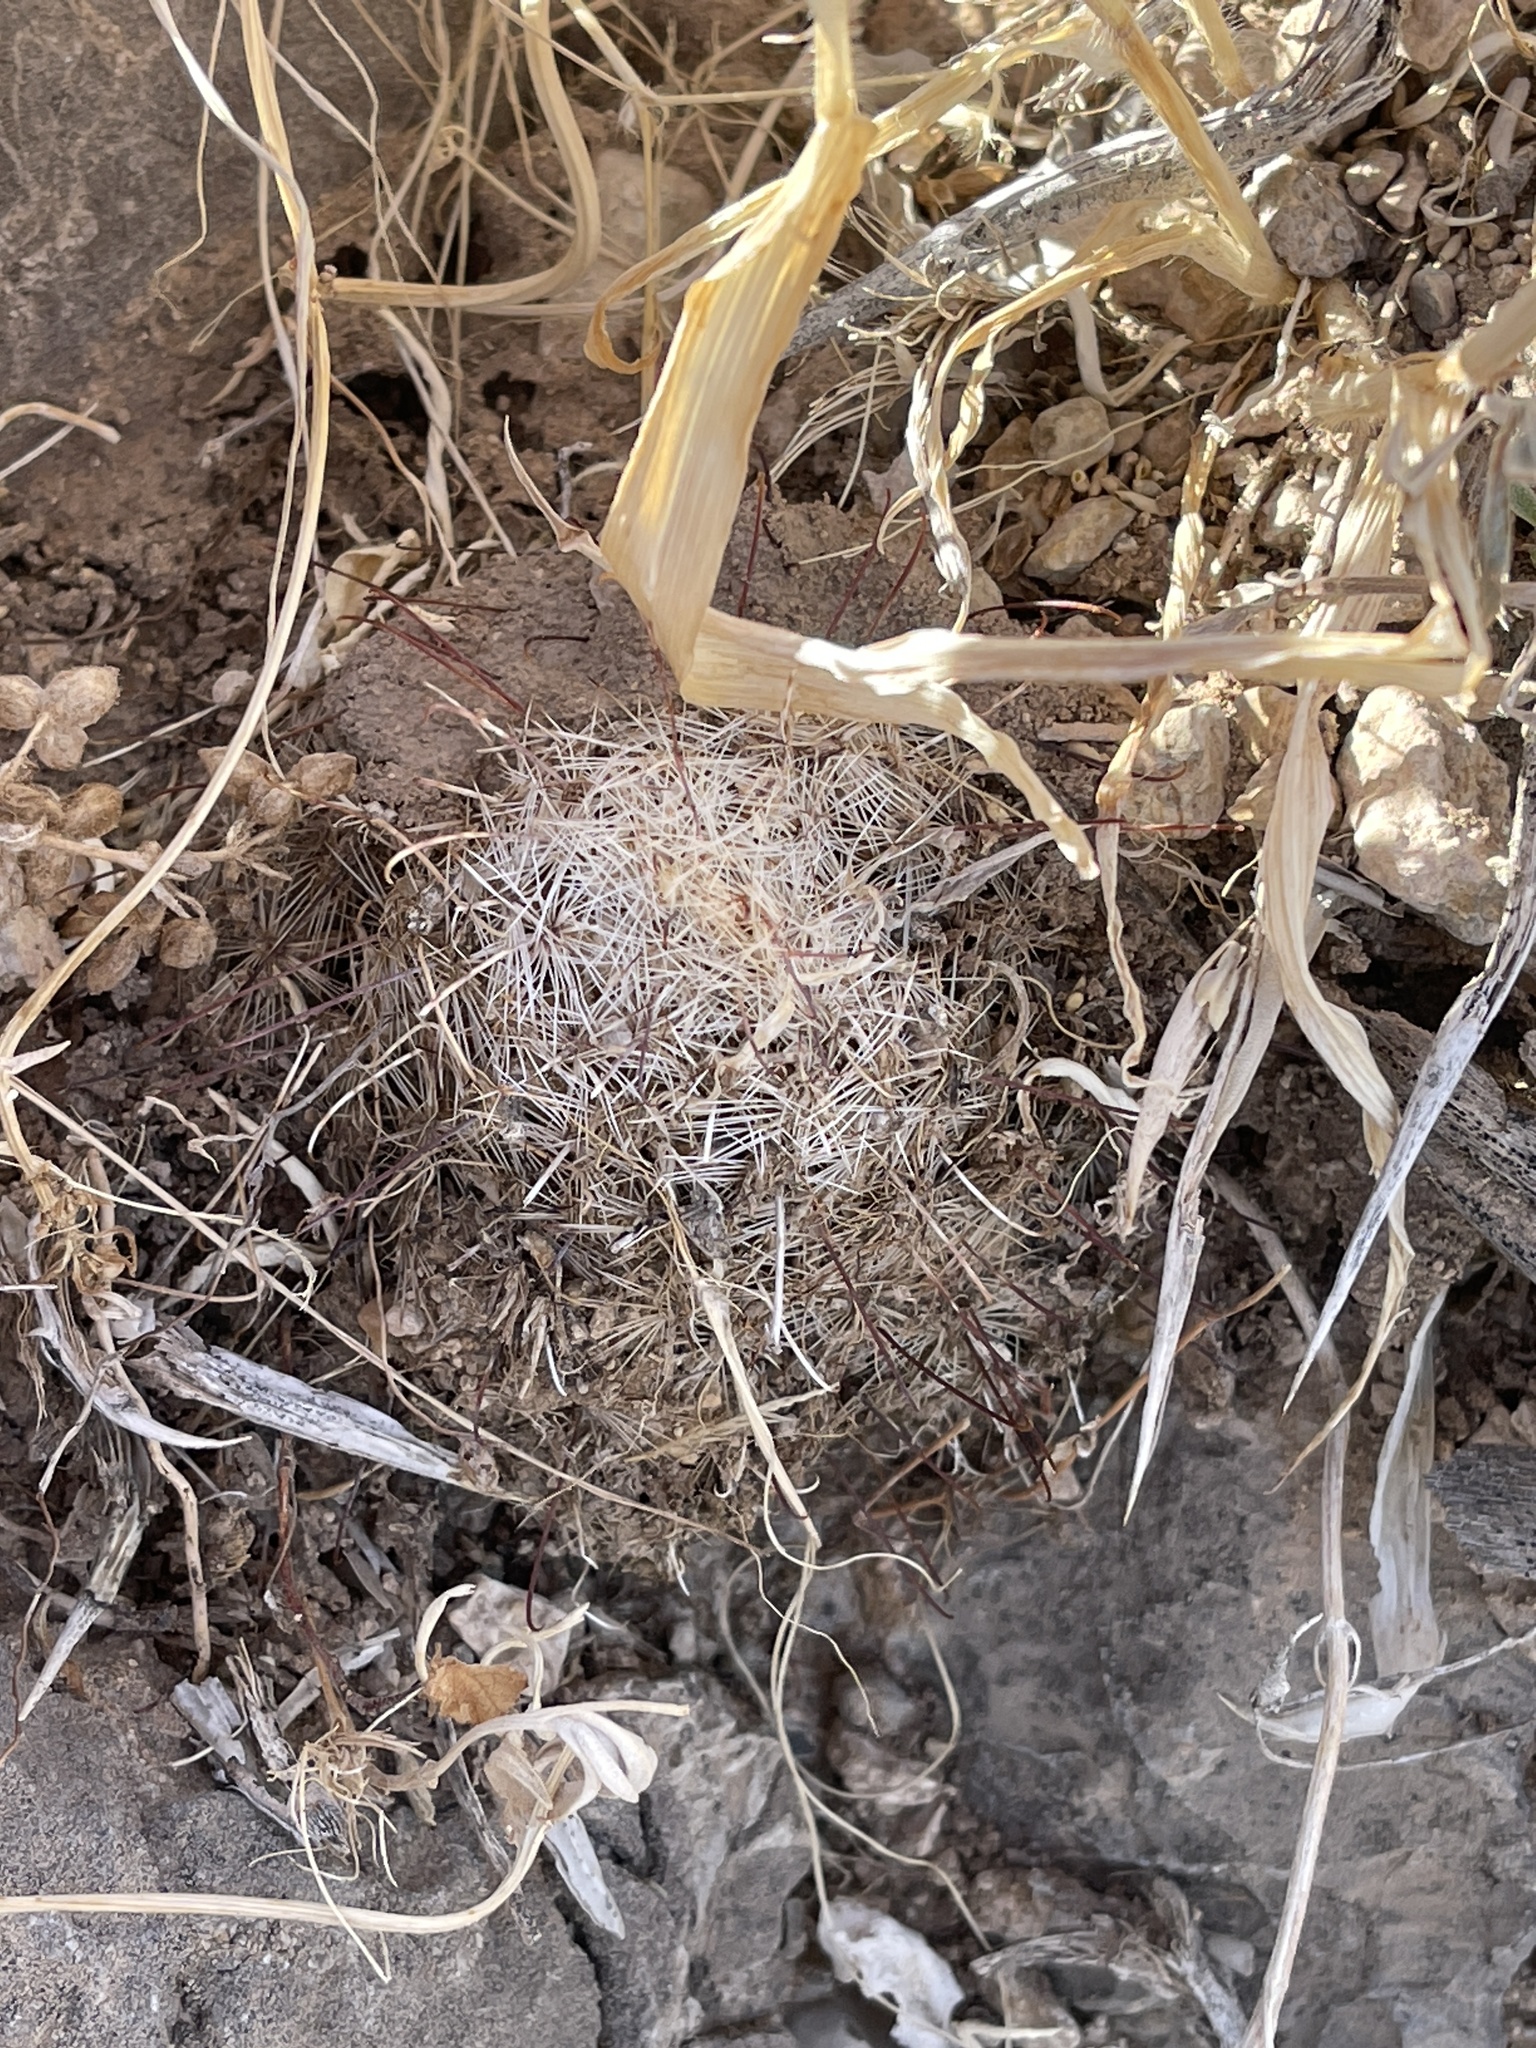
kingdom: Plantae
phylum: Tracheophyta
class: Magnoliopsida
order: Caryophyllales
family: Cactaceae
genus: Cochemiea
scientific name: Cochemiea grahamii
